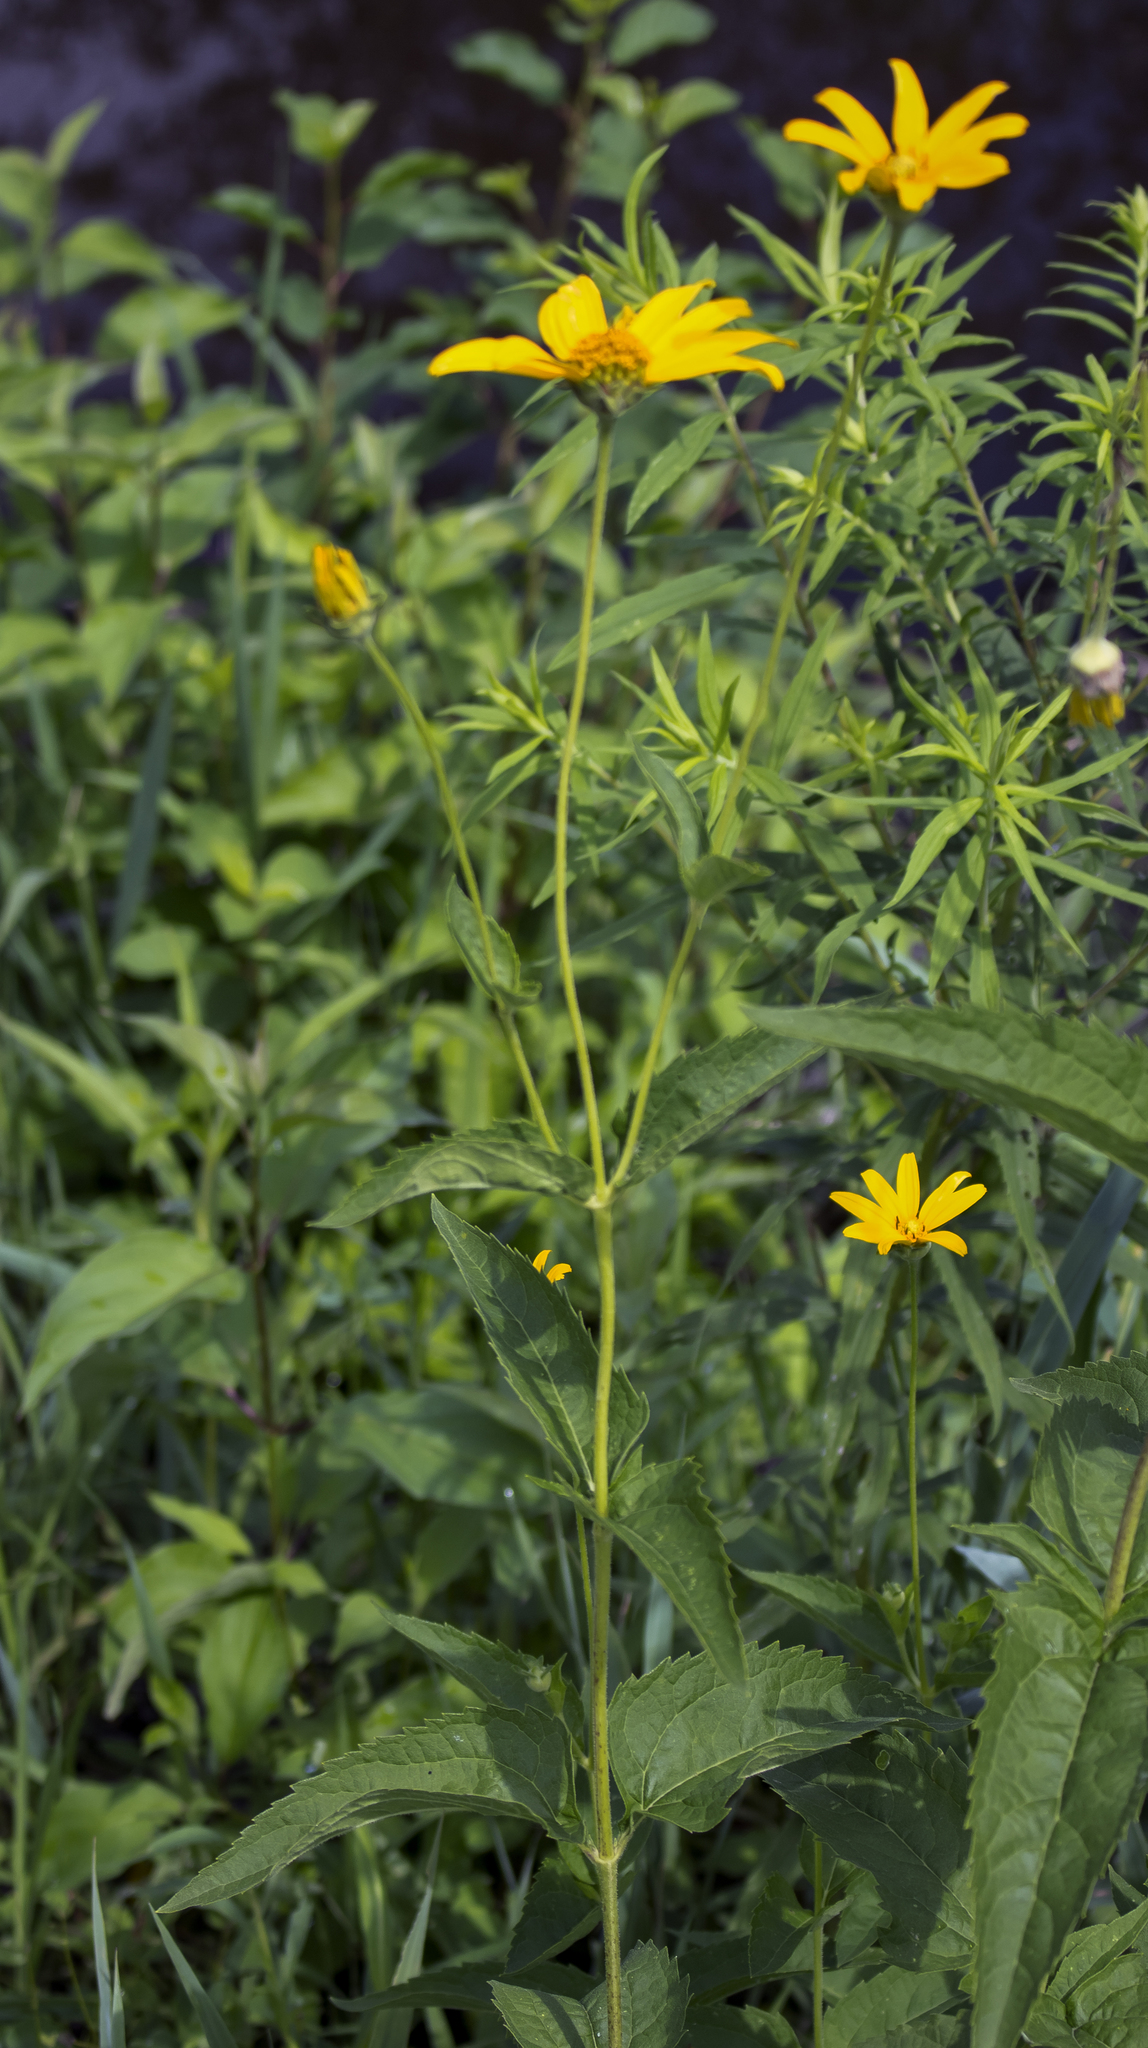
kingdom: Plantae
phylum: Tracheophyta
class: Magnoliopsida
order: Asterales
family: Asteraceae
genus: Heliopsis
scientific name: Heliopsis helianthoides
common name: False sunflower
